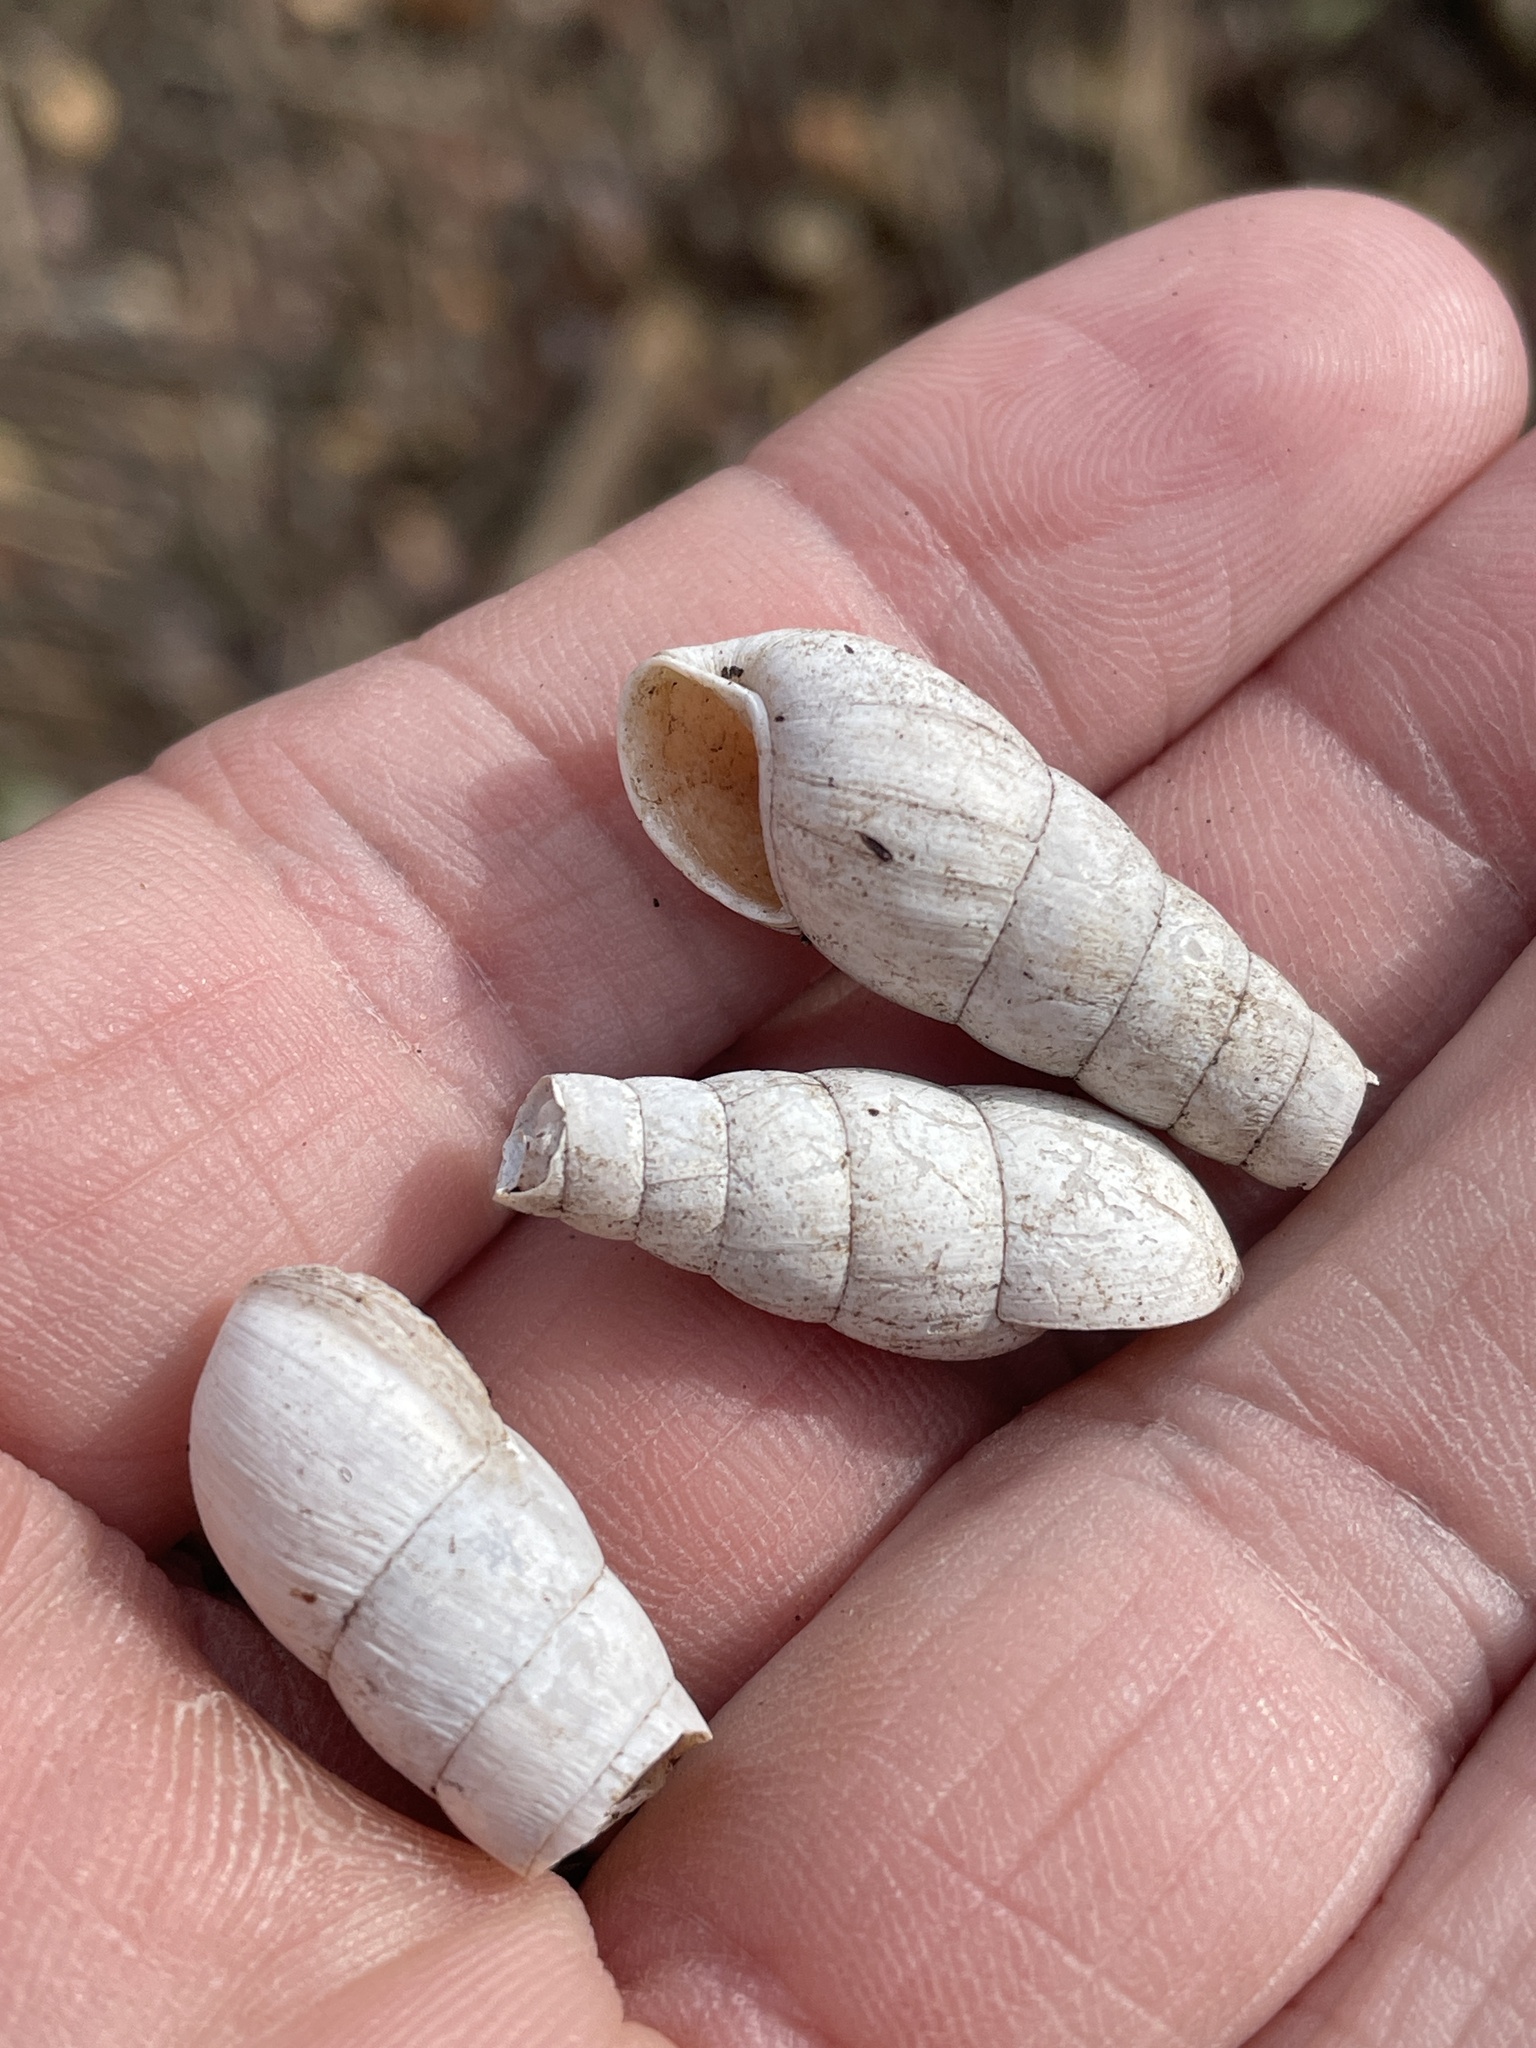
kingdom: Animalia
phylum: Mollusca
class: Gastropoda
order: Stylommatophora
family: Achatinidae
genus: Rumina
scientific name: Rumina decollata
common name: Decollate snail
